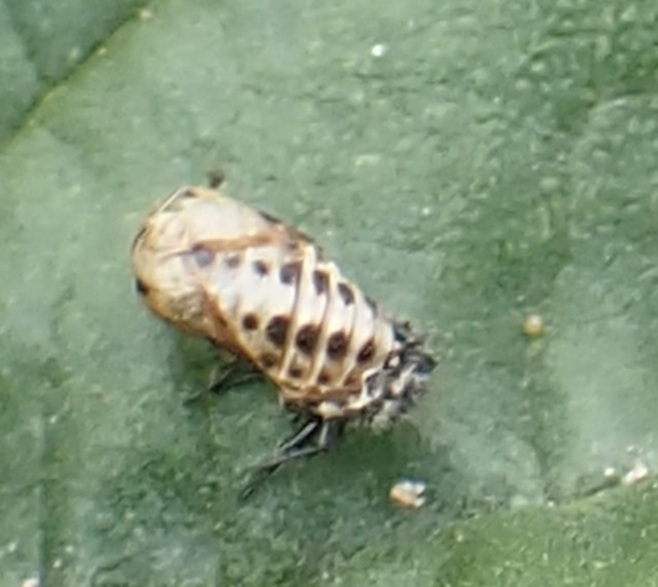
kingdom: Animalia
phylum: Arthropoda
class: Insecta
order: Coleoptera
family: Coccinellidae
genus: Harmonia
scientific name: Harmonia quadripunctata
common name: Cream-streaked ladybird
